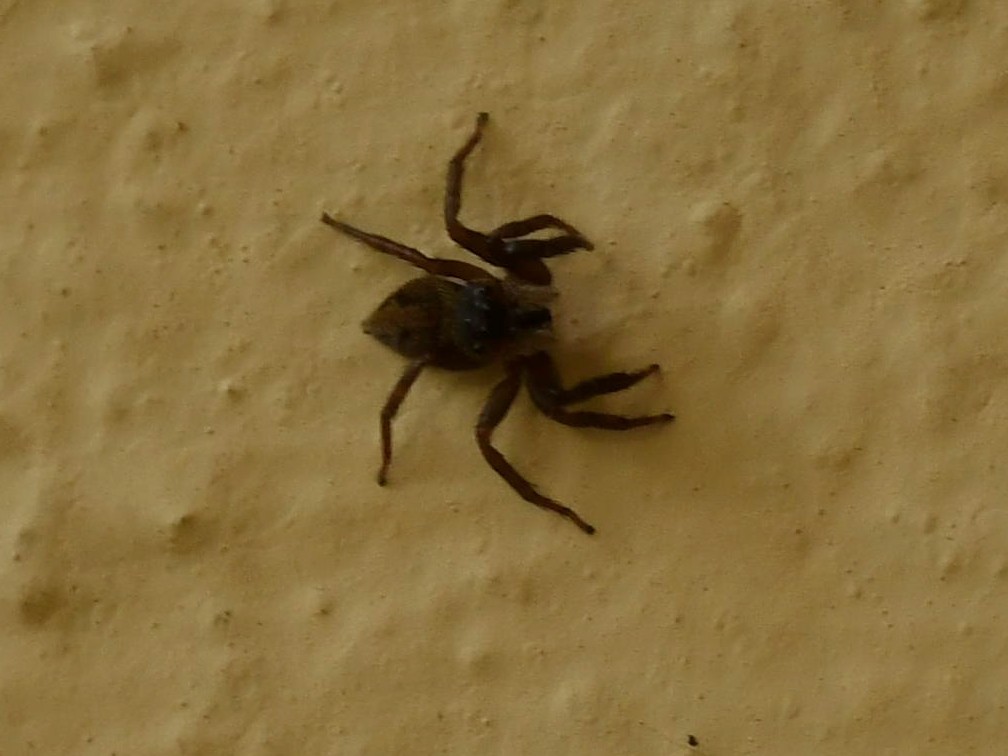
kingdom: Animalia
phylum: Arthropoda
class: Arachnida
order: Araneae
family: Salticidae
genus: Hasarius
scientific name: Hasarius adansoni
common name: Jumping spider
